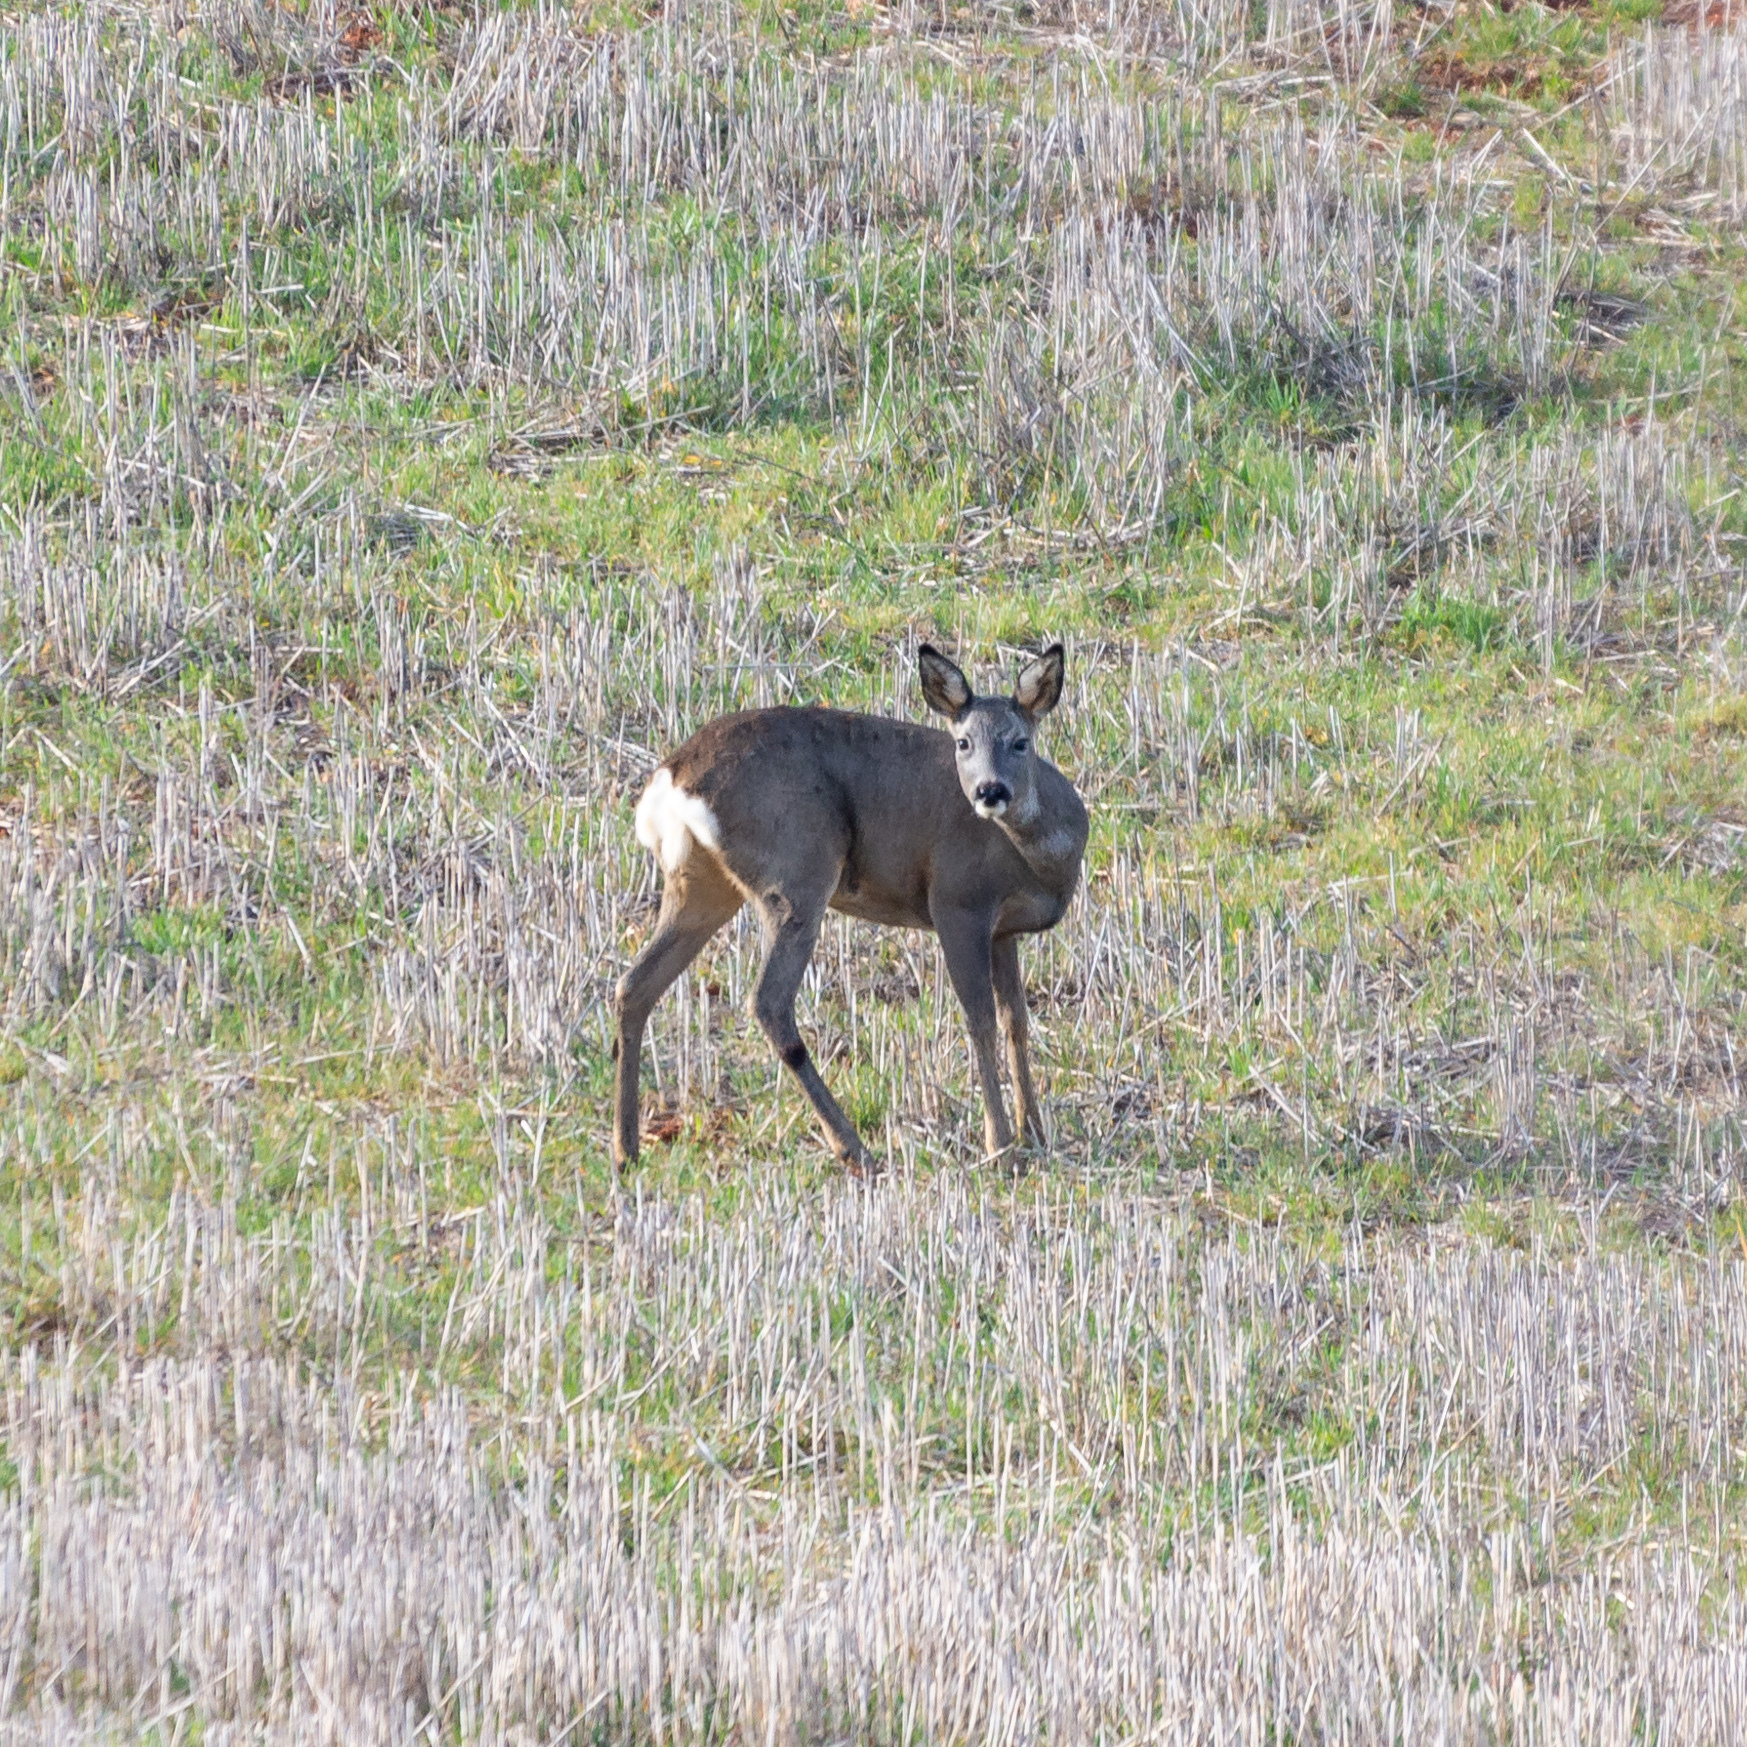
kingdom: Animalia
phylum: Chordata
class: Mammalia
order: Artiodactyla
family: Cervidae
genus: Capreolus
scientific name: Capreolus capreolus
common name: Western roe deer
